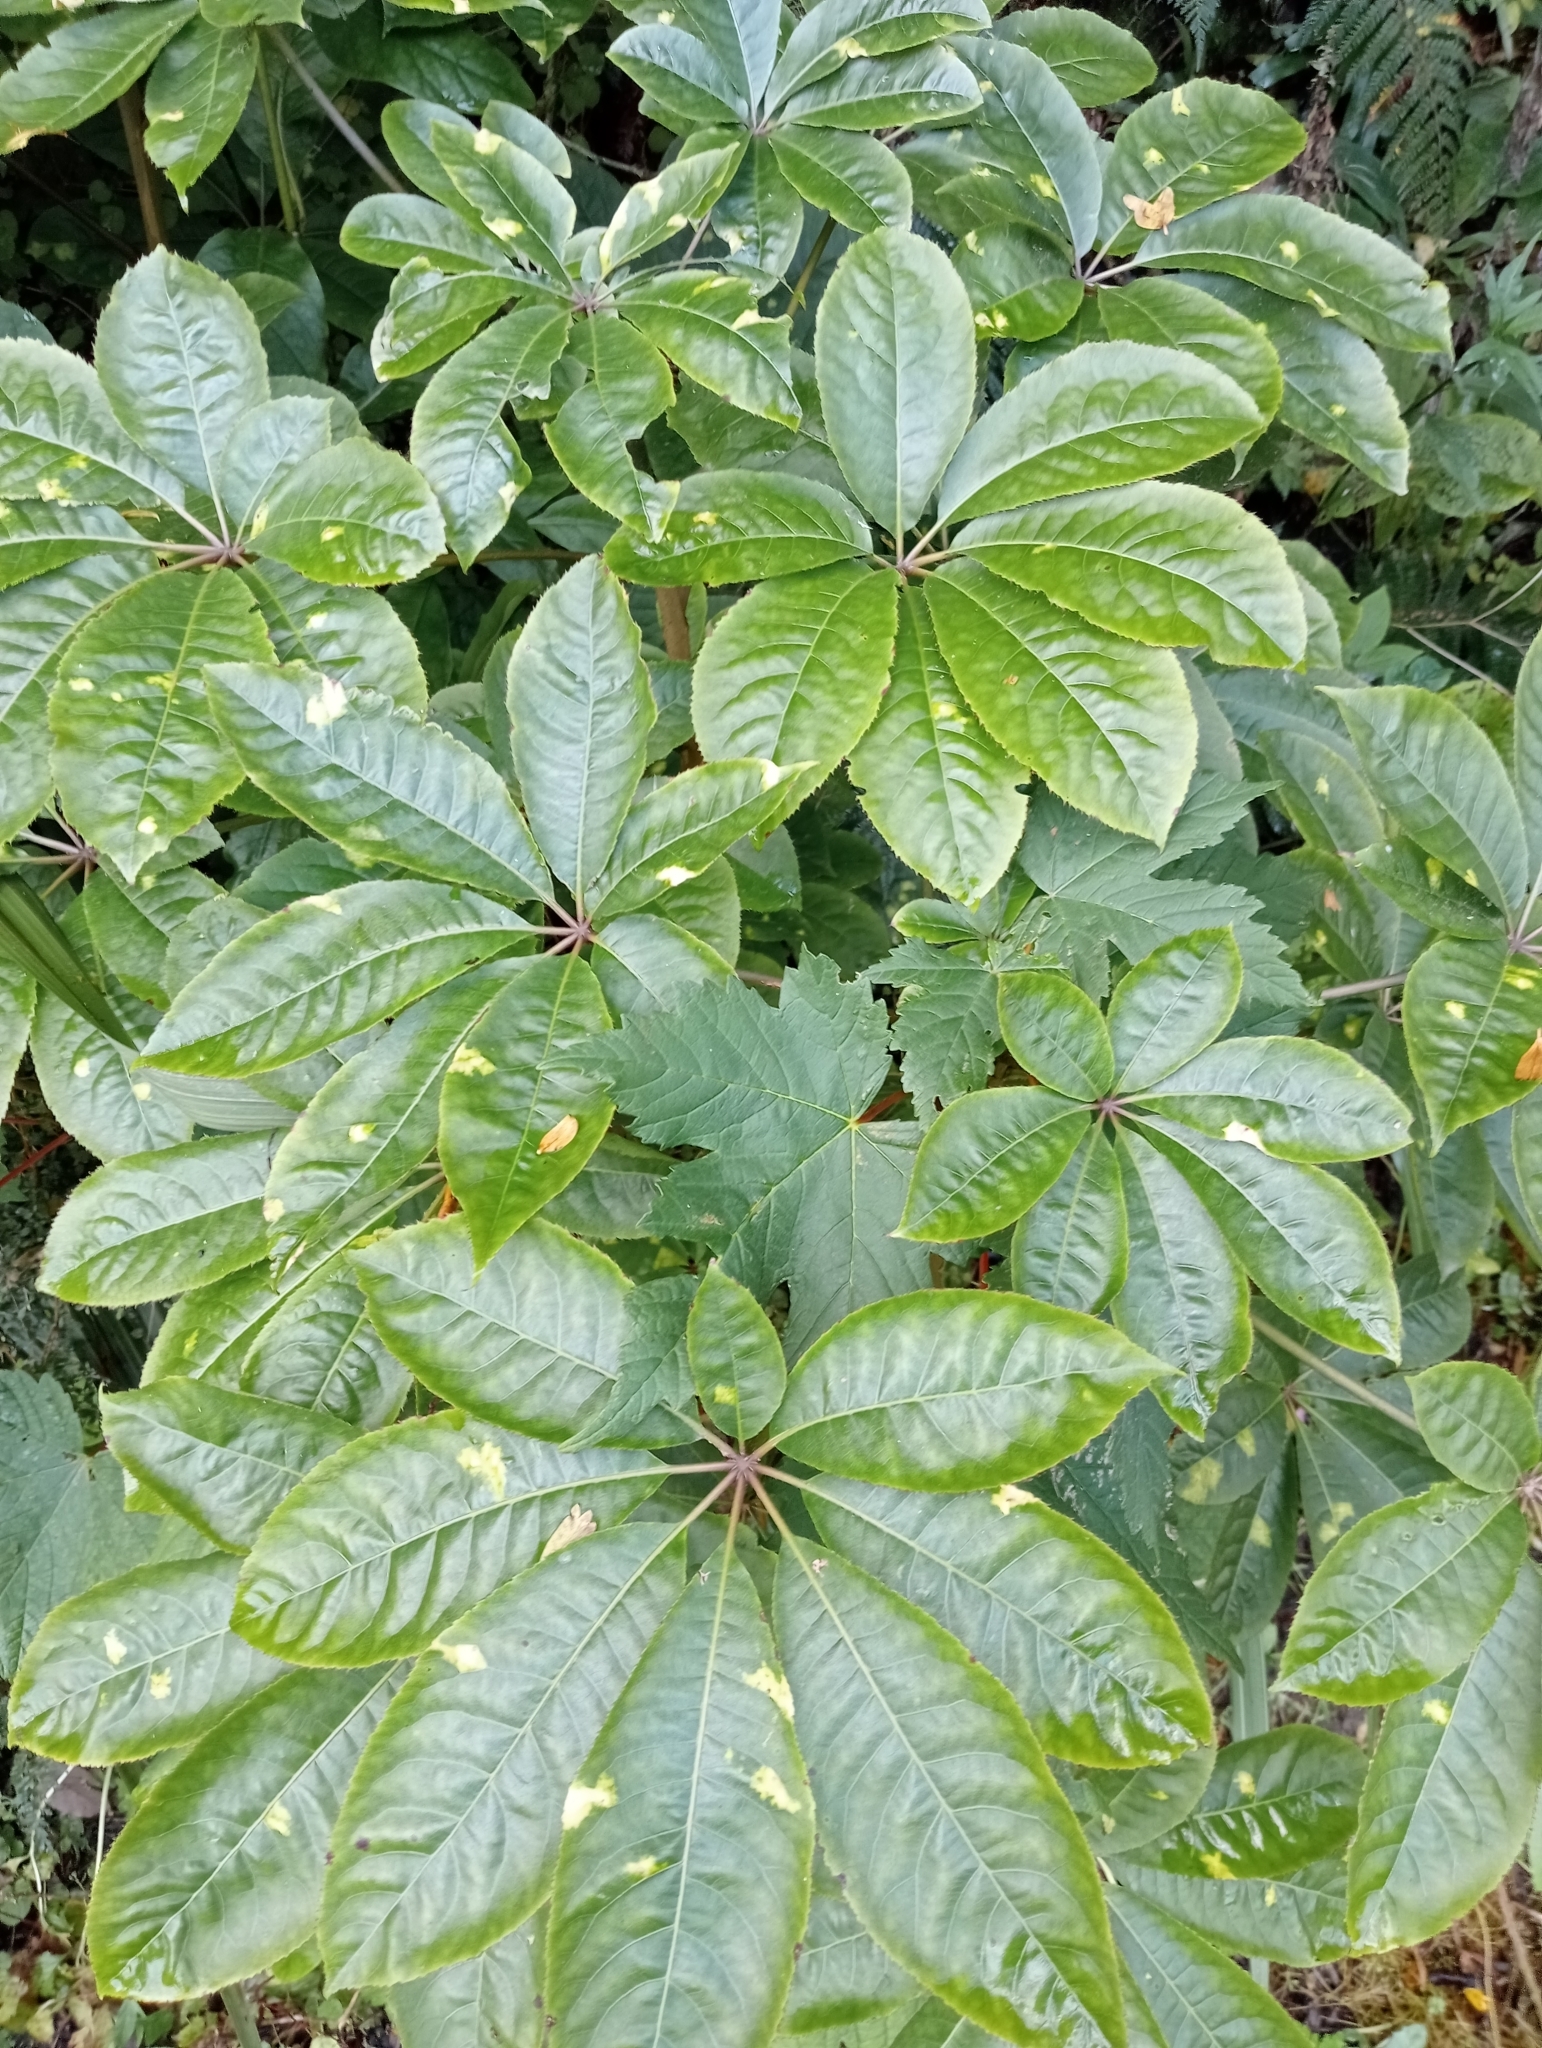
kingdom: Plantae
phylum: Tracheophyta
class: Magnoliopsida
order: Apiales
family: Araliaceae
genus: Schefflera
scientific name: Schefflera digitata
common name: Pate
